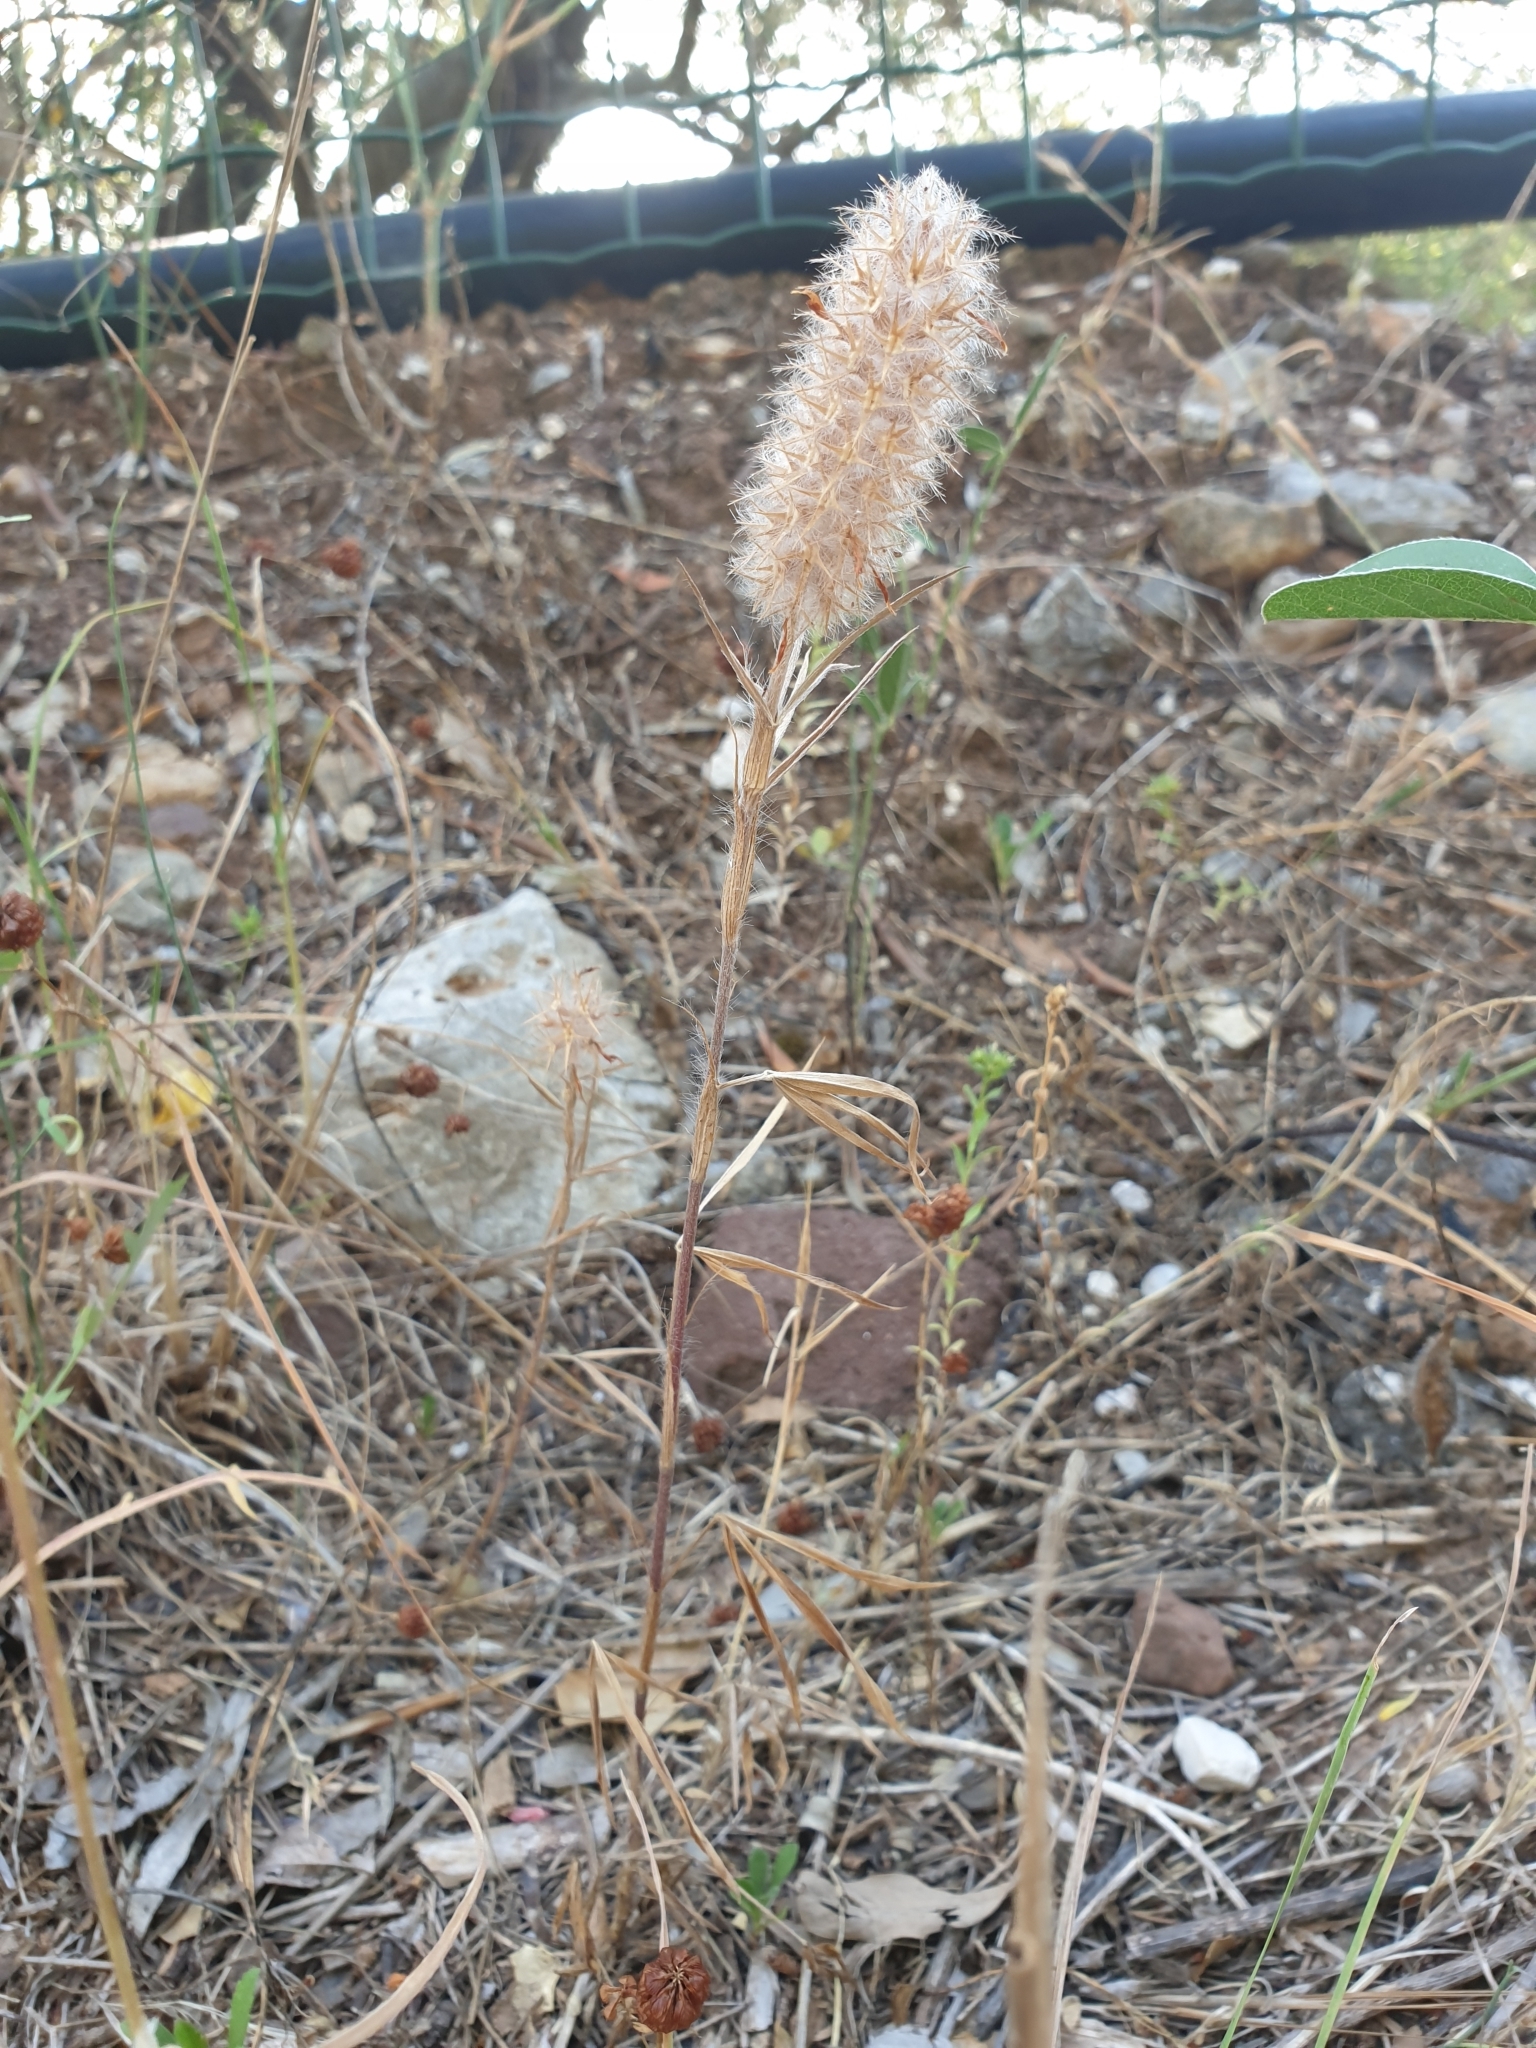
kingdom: Plantae
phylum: Tracheophyta
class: Magnoliopsida
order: Fabales
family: Fabaceae
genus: Trifolium
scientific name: Trifolium angustifolium
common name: Narrow clover
